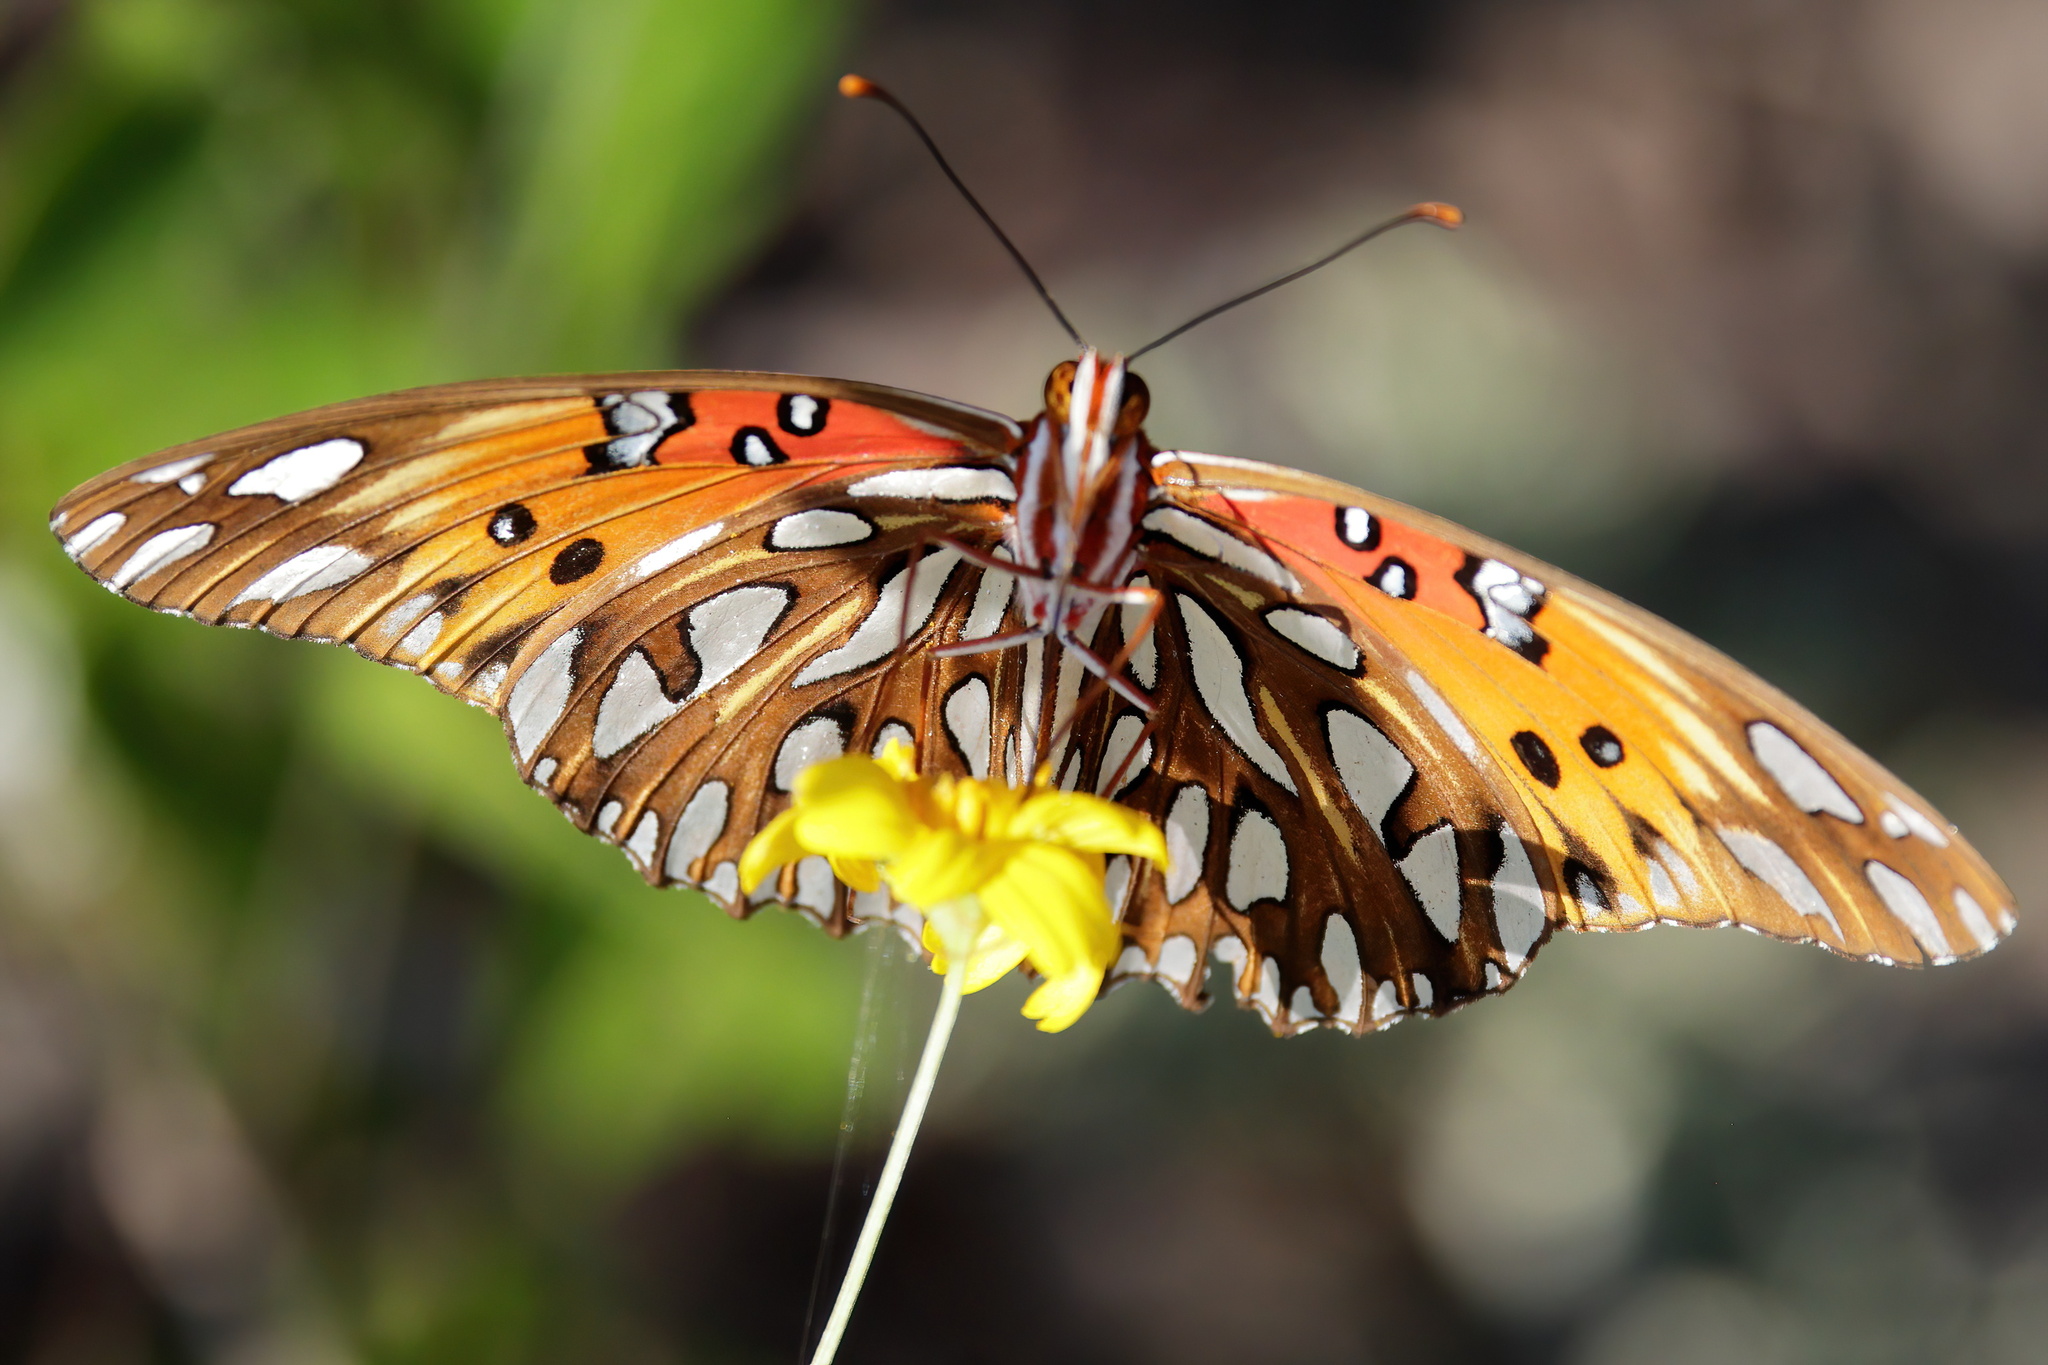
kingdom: Animalia
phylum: Arthropoda
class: Insecta
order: Lepidoptera
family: Nymphalidae
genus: Dione
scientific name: Dione vanillae
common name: Gulf fritillary
